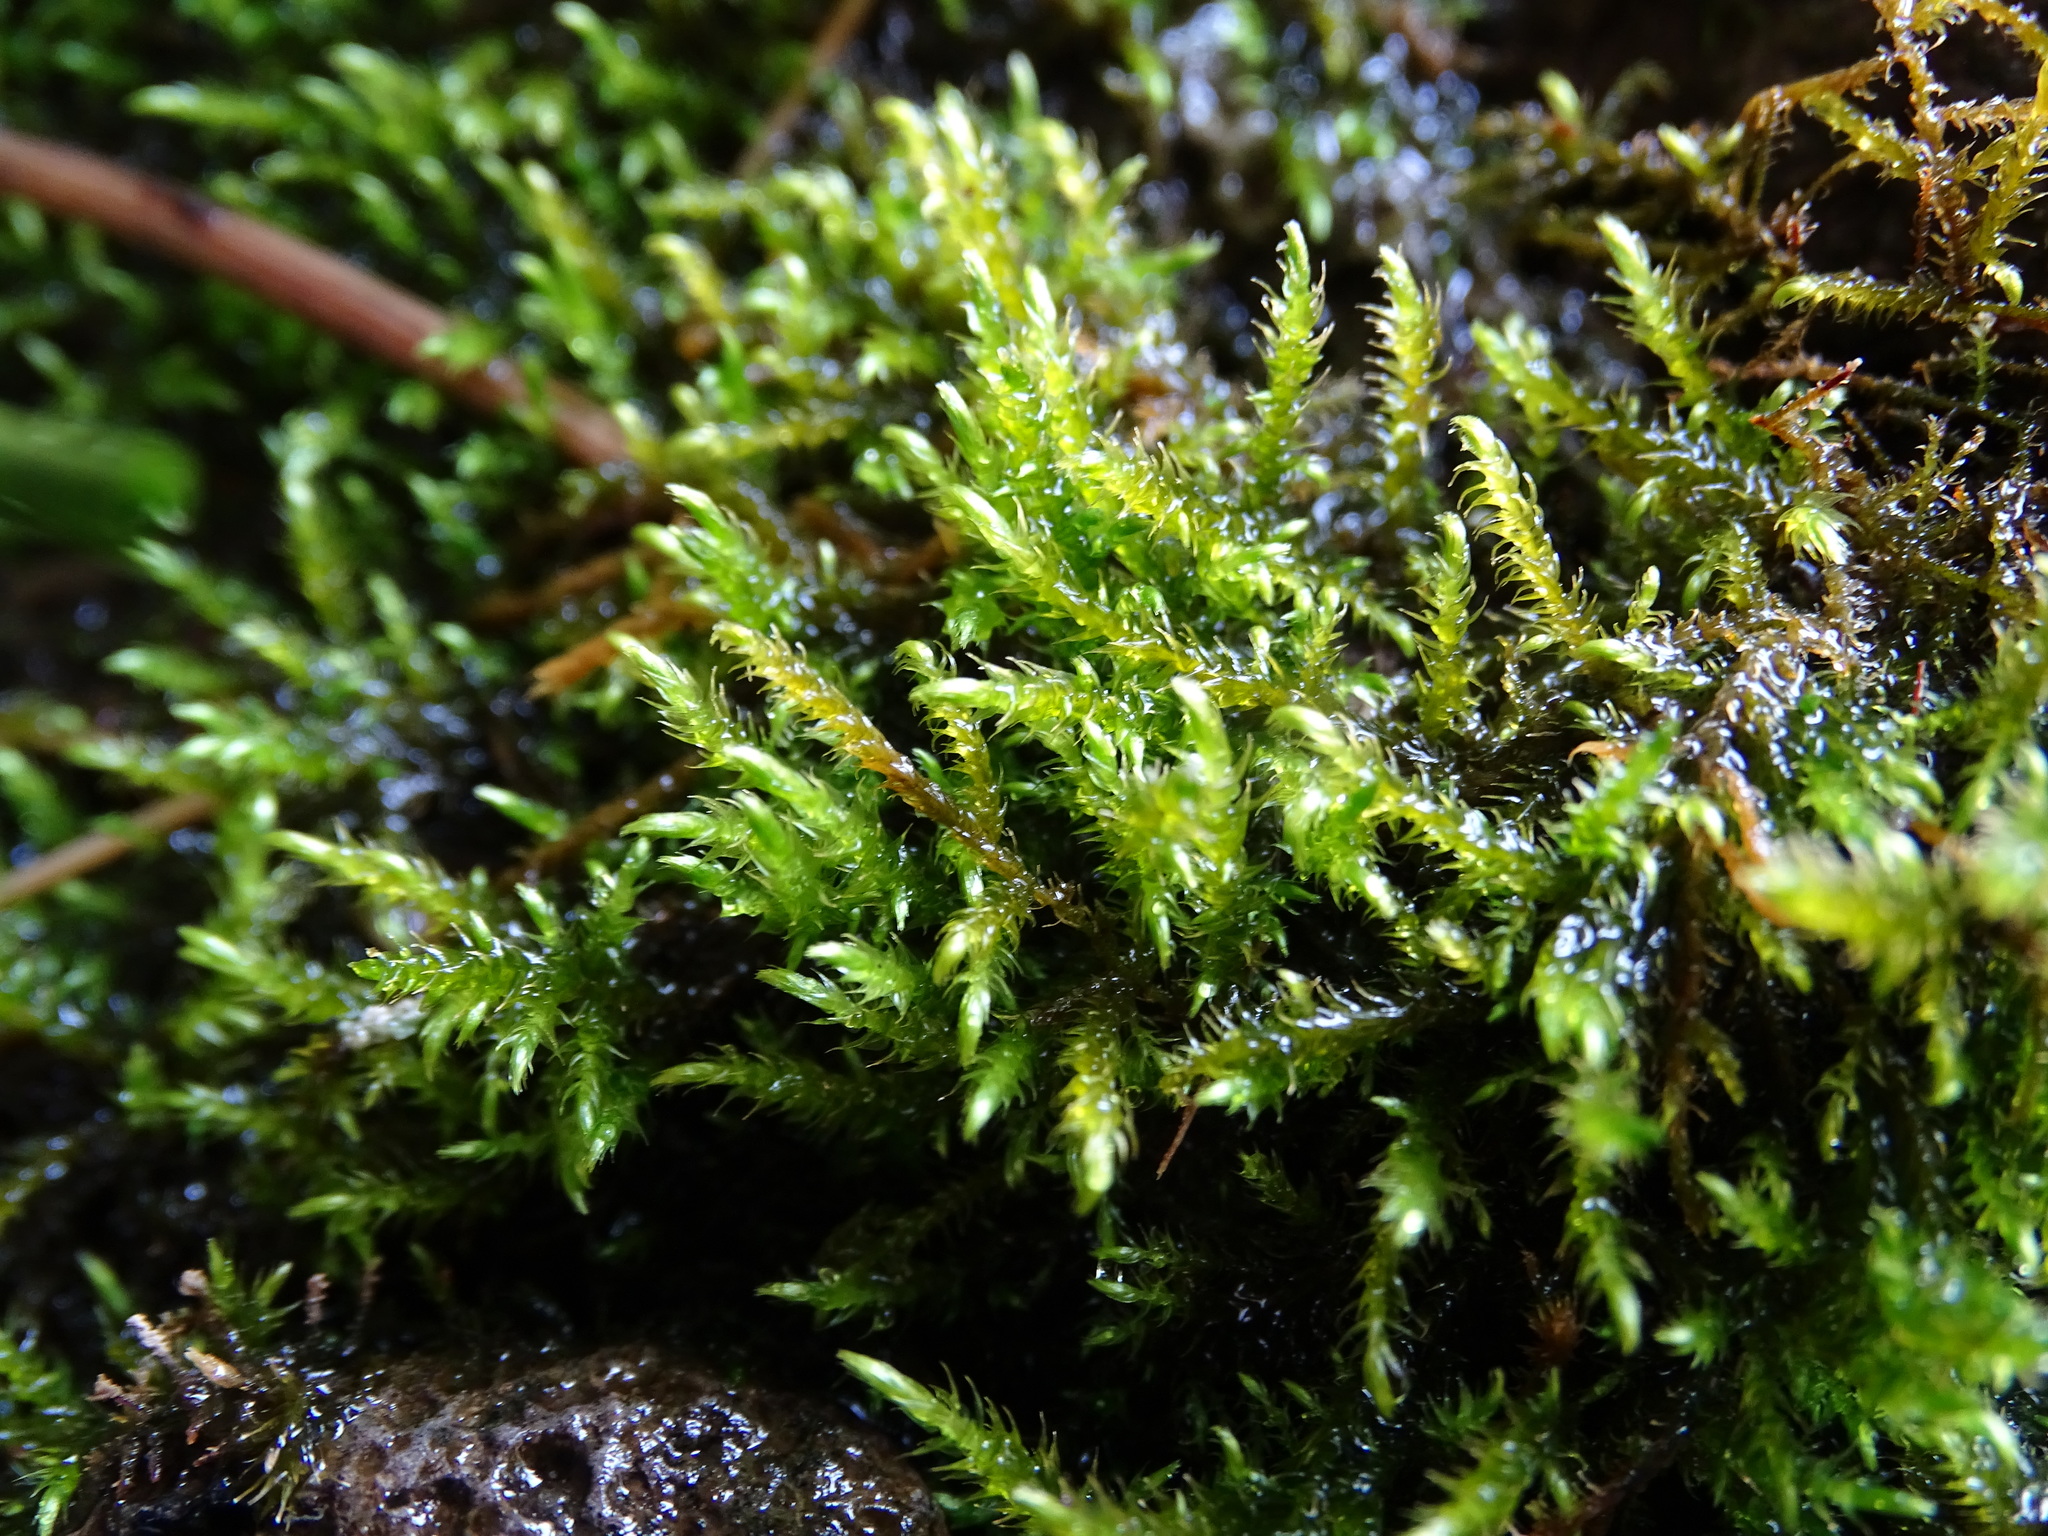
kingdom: Plantae
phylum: Bryophyta
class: Bryopsida
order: Hypnales
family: Amblystegiaceae
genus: Cratoneuron
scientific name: Cratoneuron filicinum
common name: Fern-leaved hook moss
